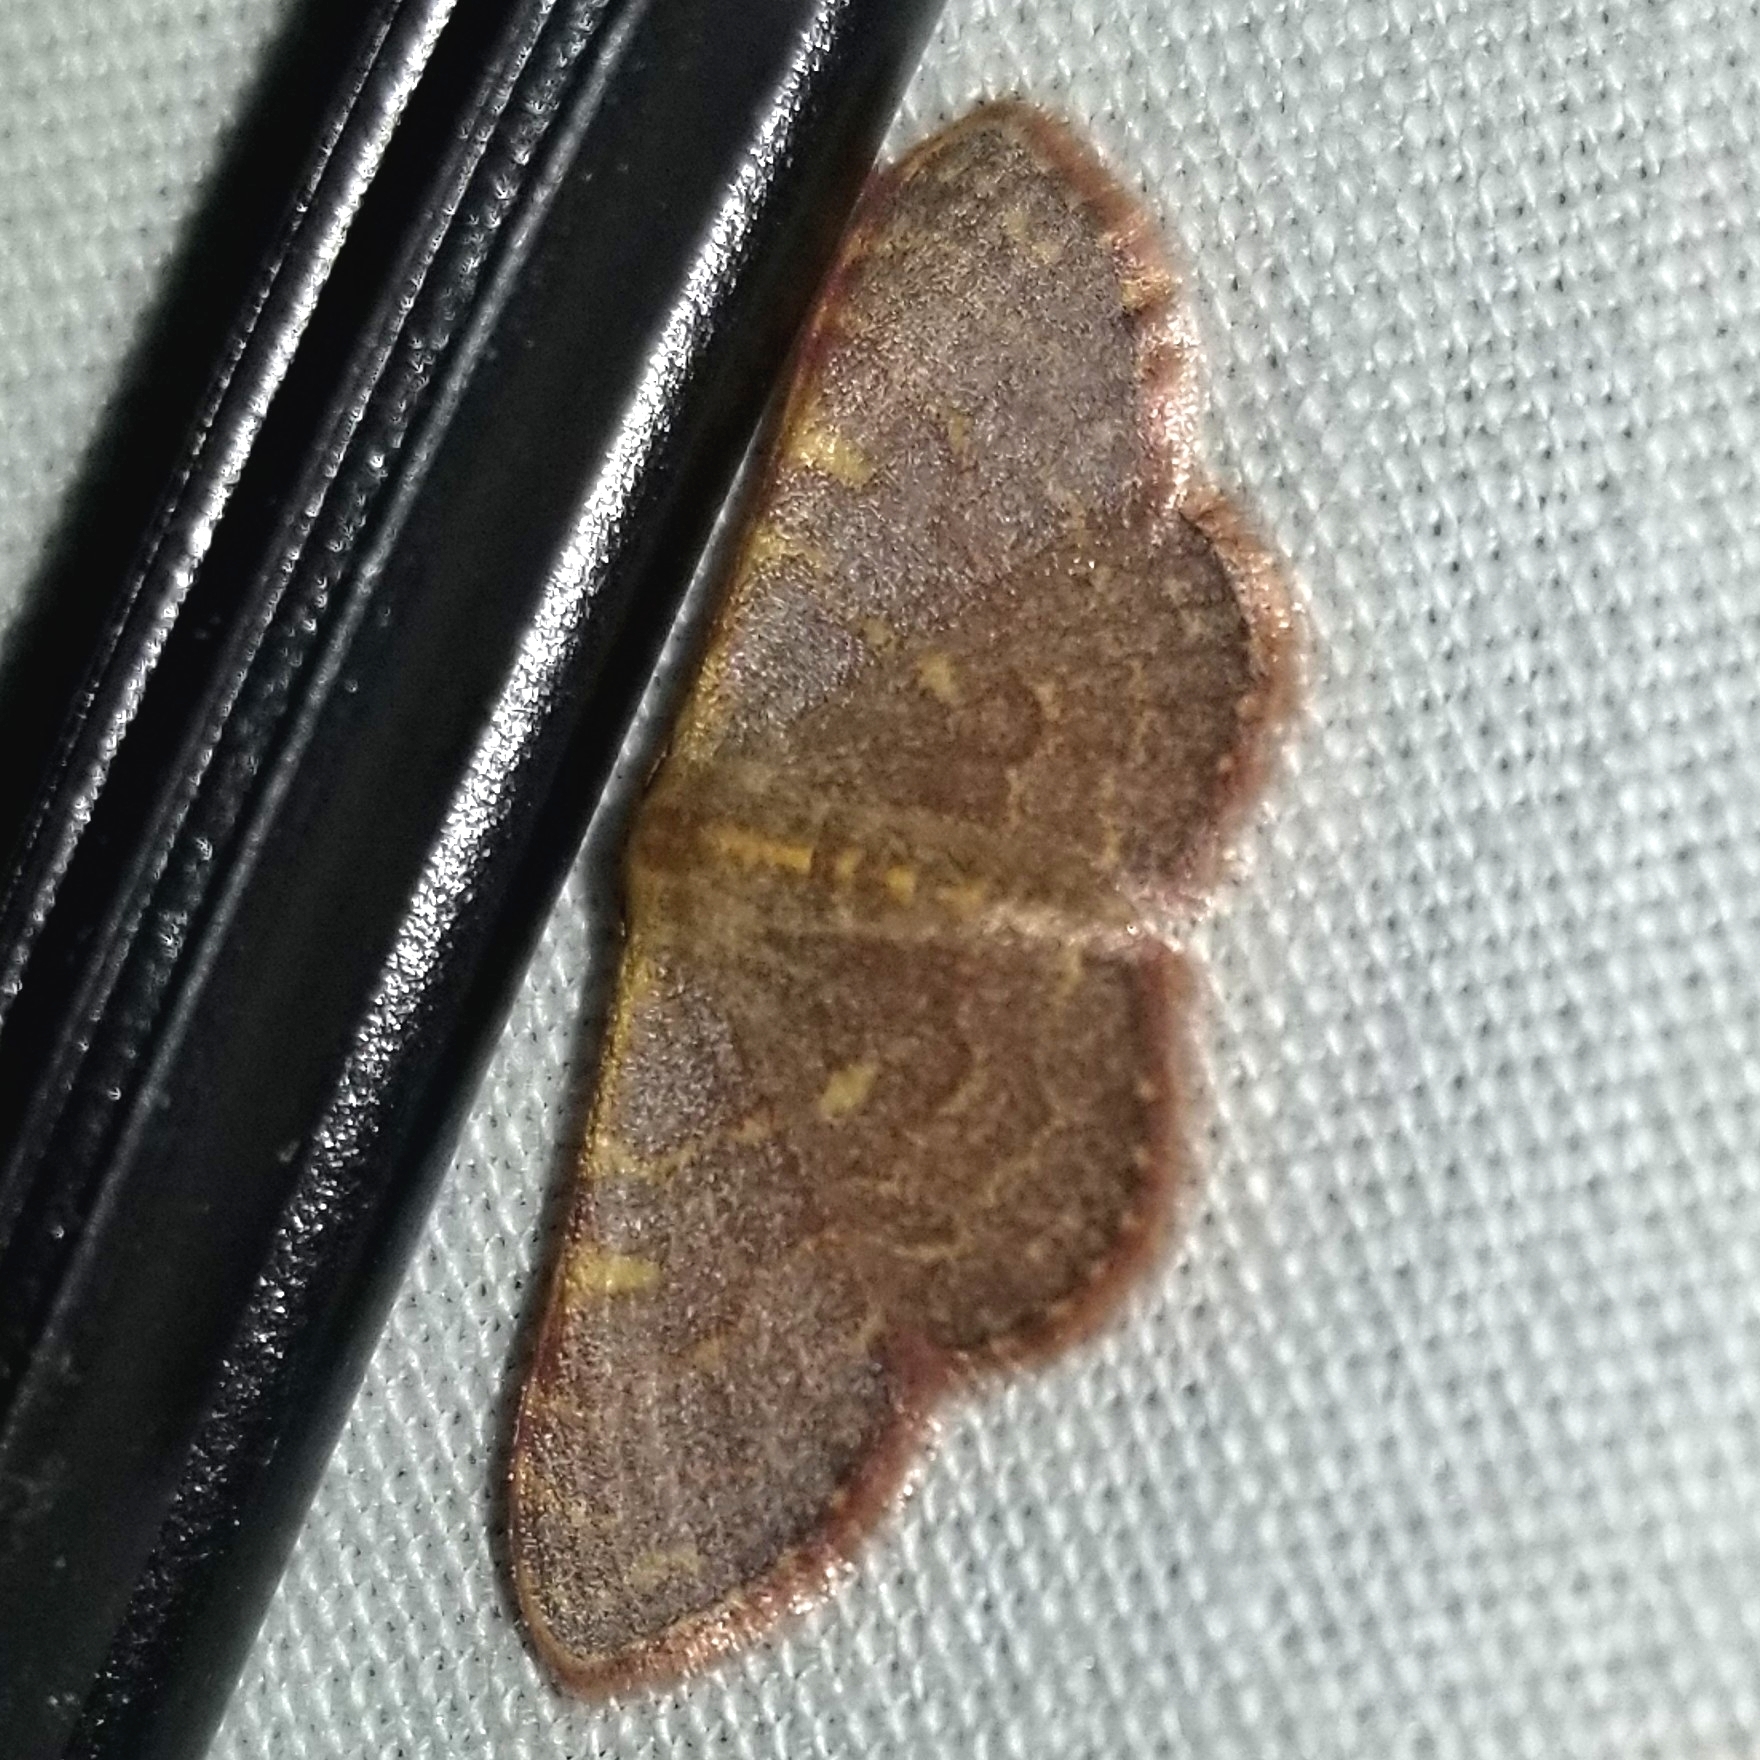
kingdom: Animalia
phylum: Arthropoda
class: Insecta
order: Lepidoptera
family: Geometridae
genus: Leptostales
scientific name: Leptostales pannaria
